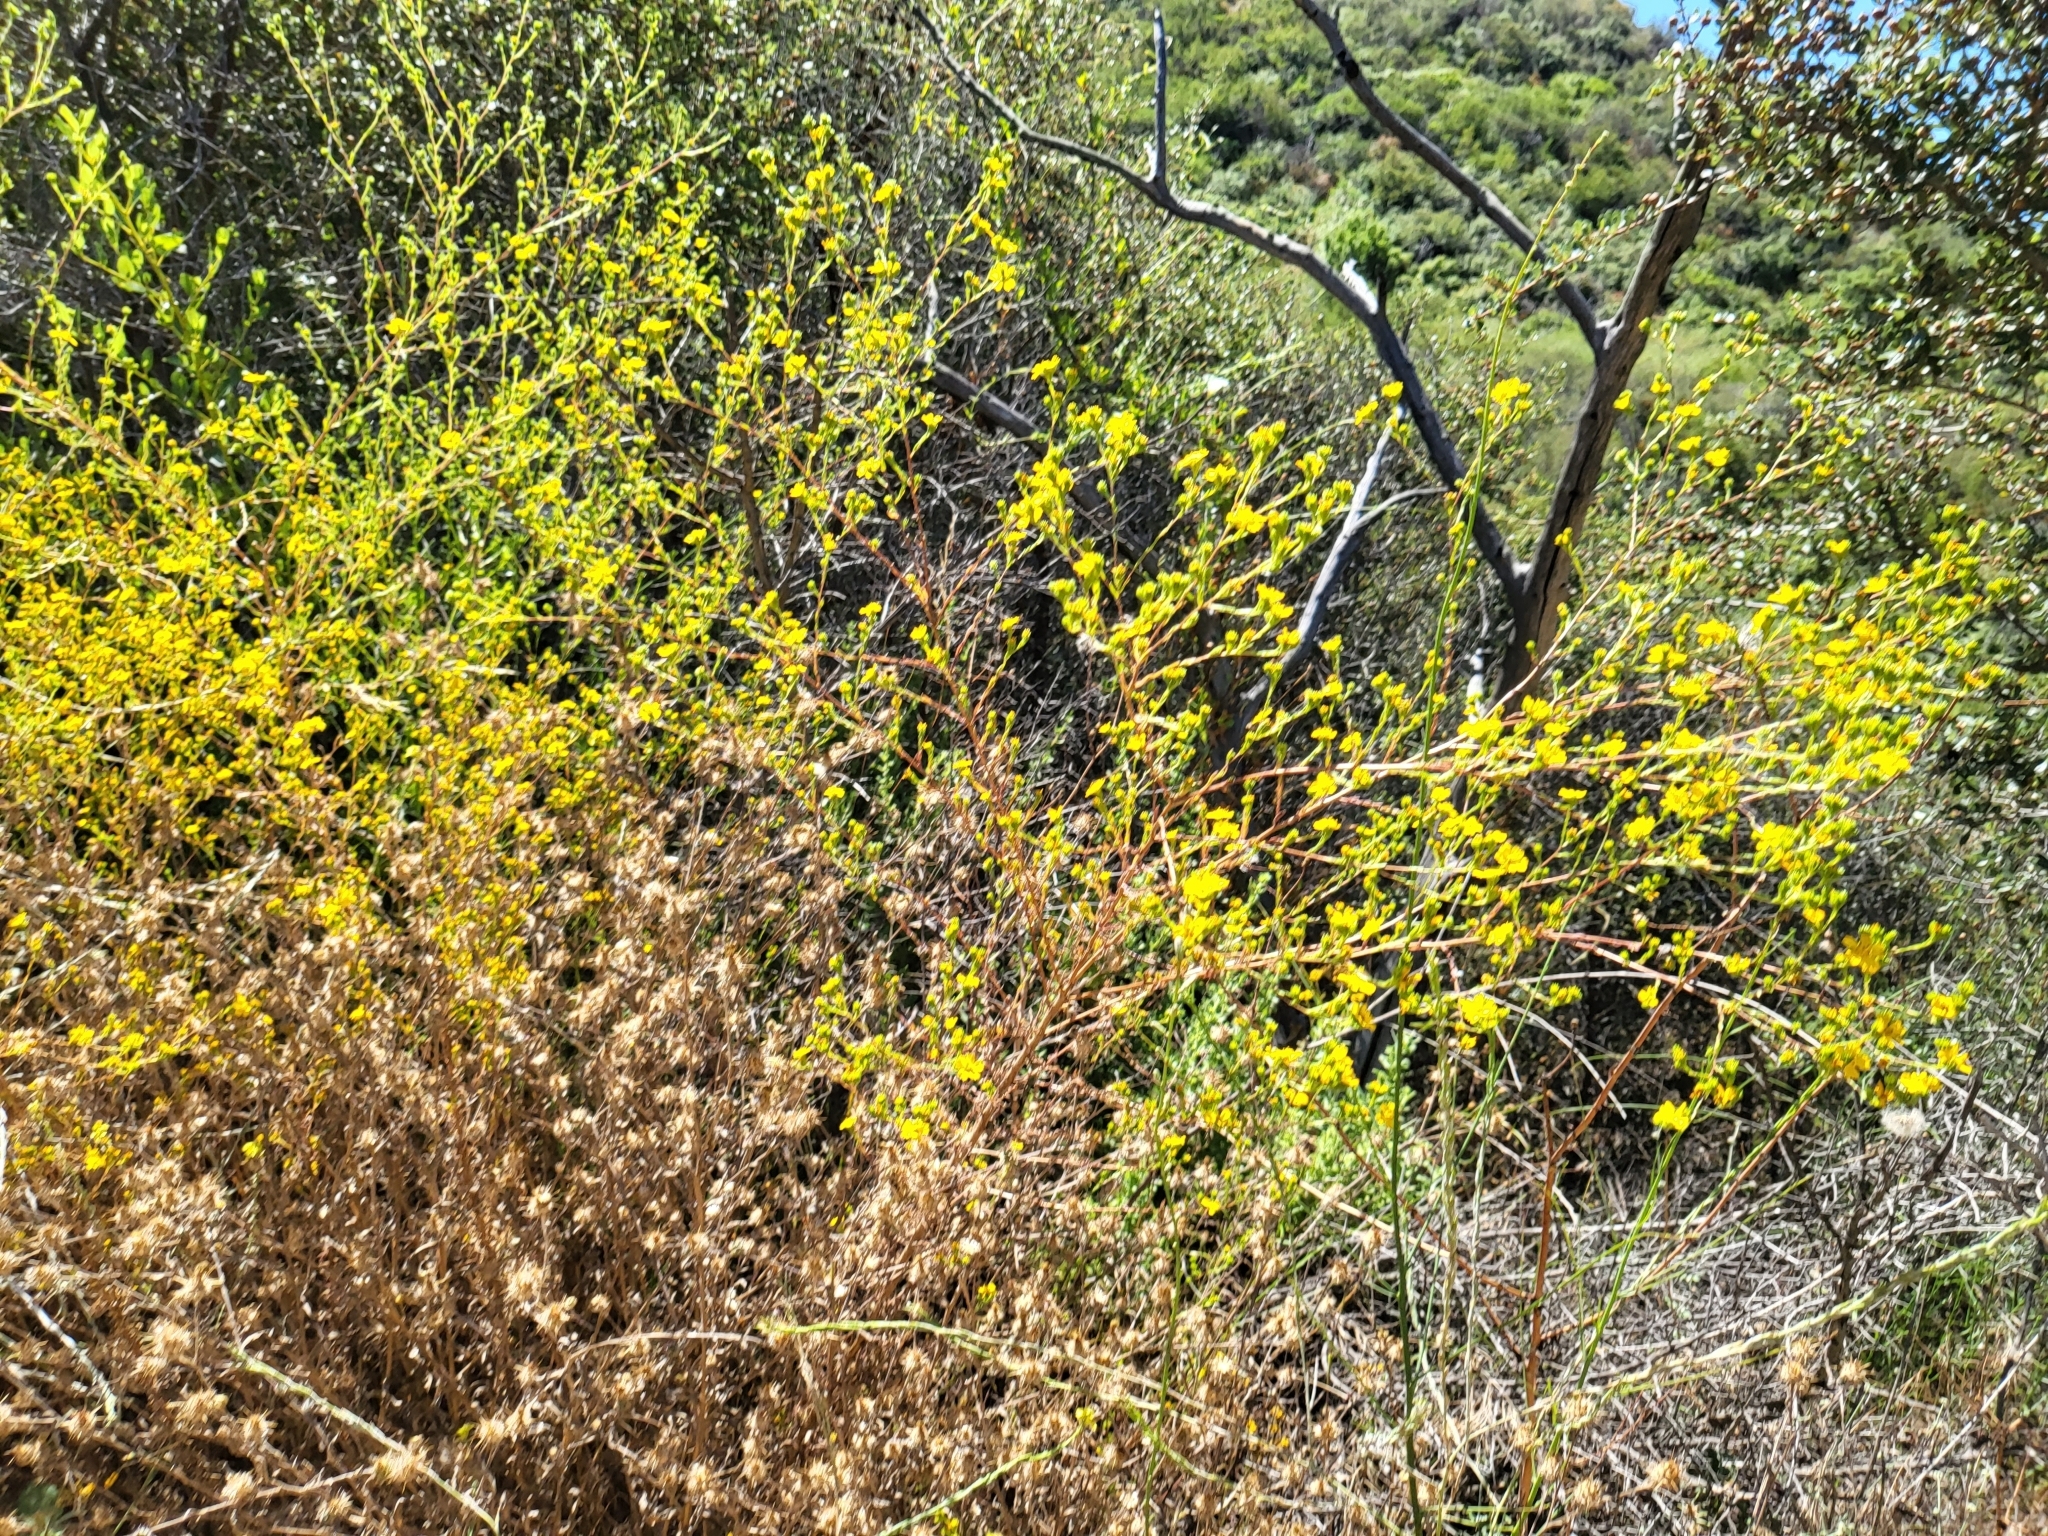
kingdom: Plantae
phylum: Tracheophyta
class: Magnoliopsida
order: Asterales
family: Asteraceae
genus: Deinandra
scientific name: Deinandra fasciculata
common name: Clustered tarweed
